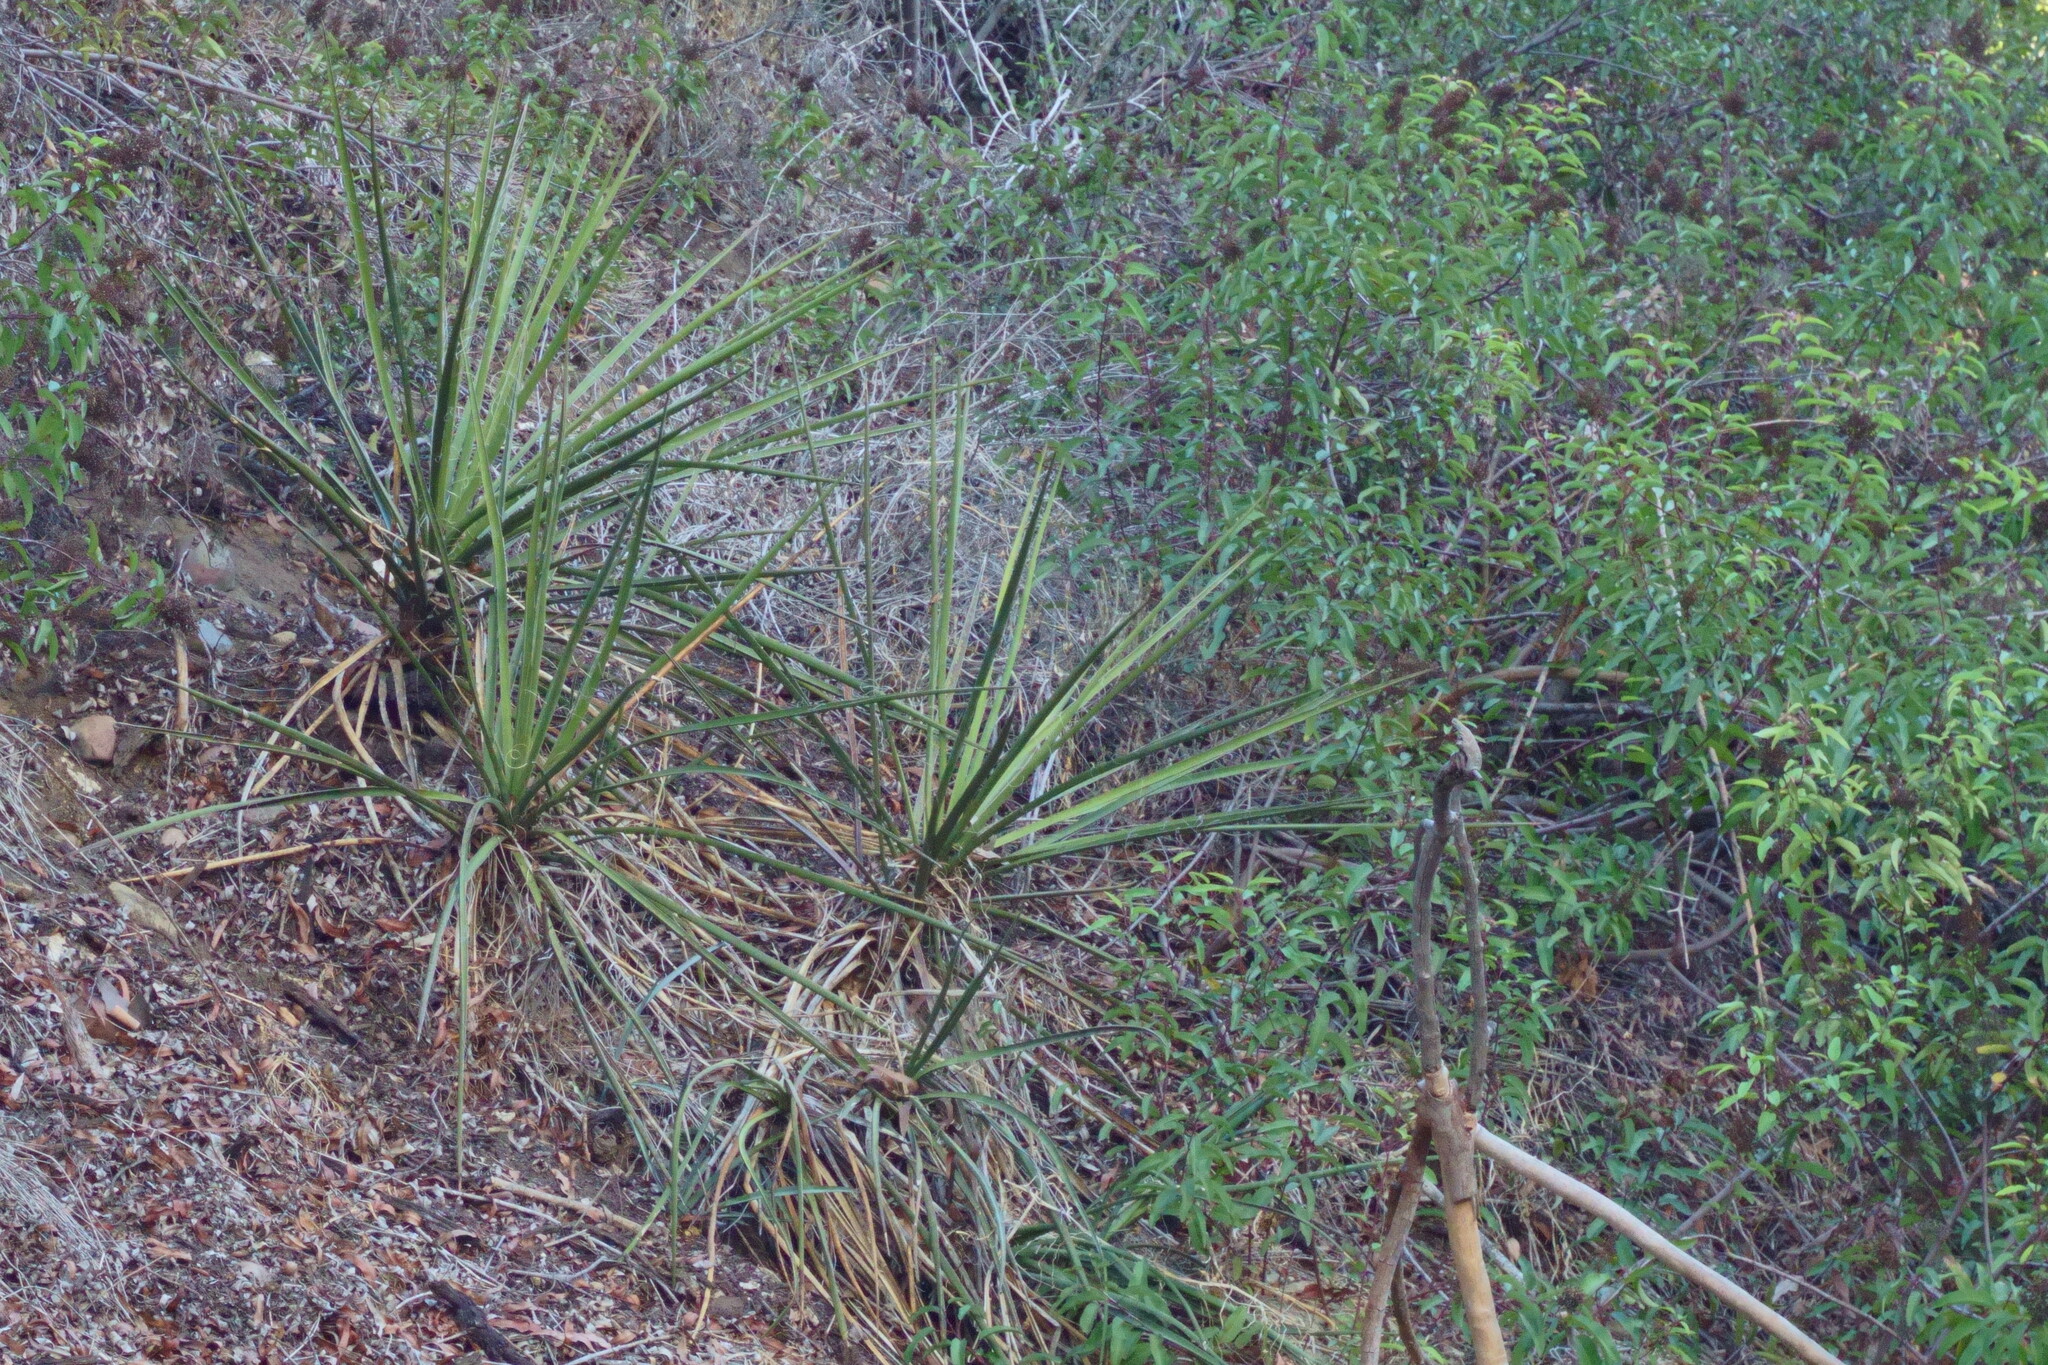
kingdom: Plantae
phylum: Tracheophyta
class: Liliopsida
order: Asparagales
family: Asparagaceae
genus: Yucca
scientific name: Yucca schidigera
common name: Mojave yucca
